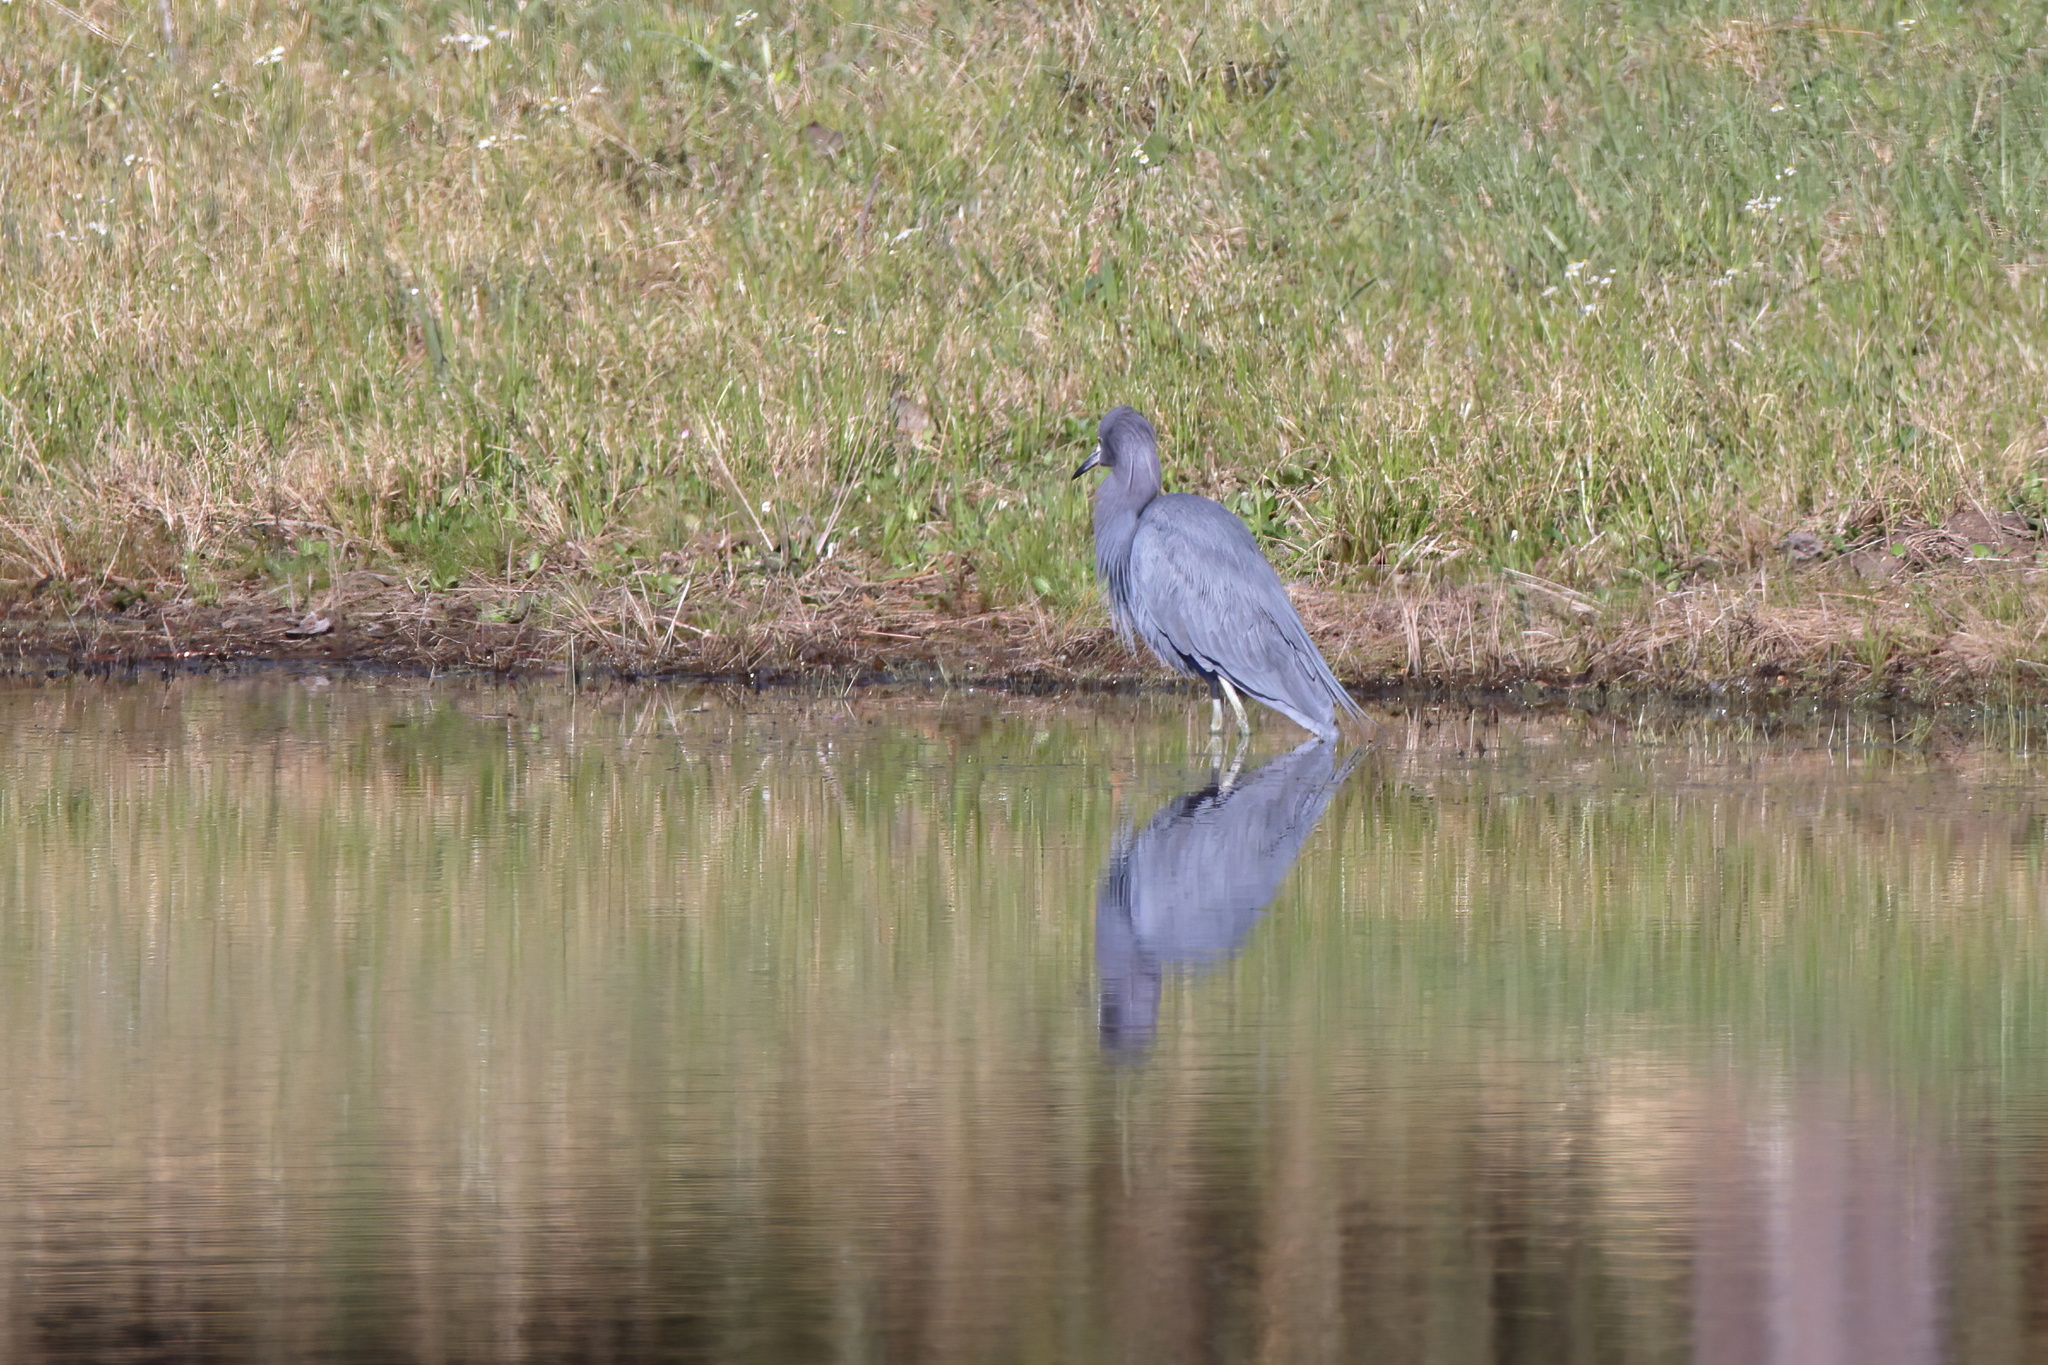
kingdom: Animalia
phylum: Chordata
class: Aves
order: Pelecaniformes
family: Ardeidae
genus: Egretta
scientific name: Egretta caerulea
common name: Little blue heron
